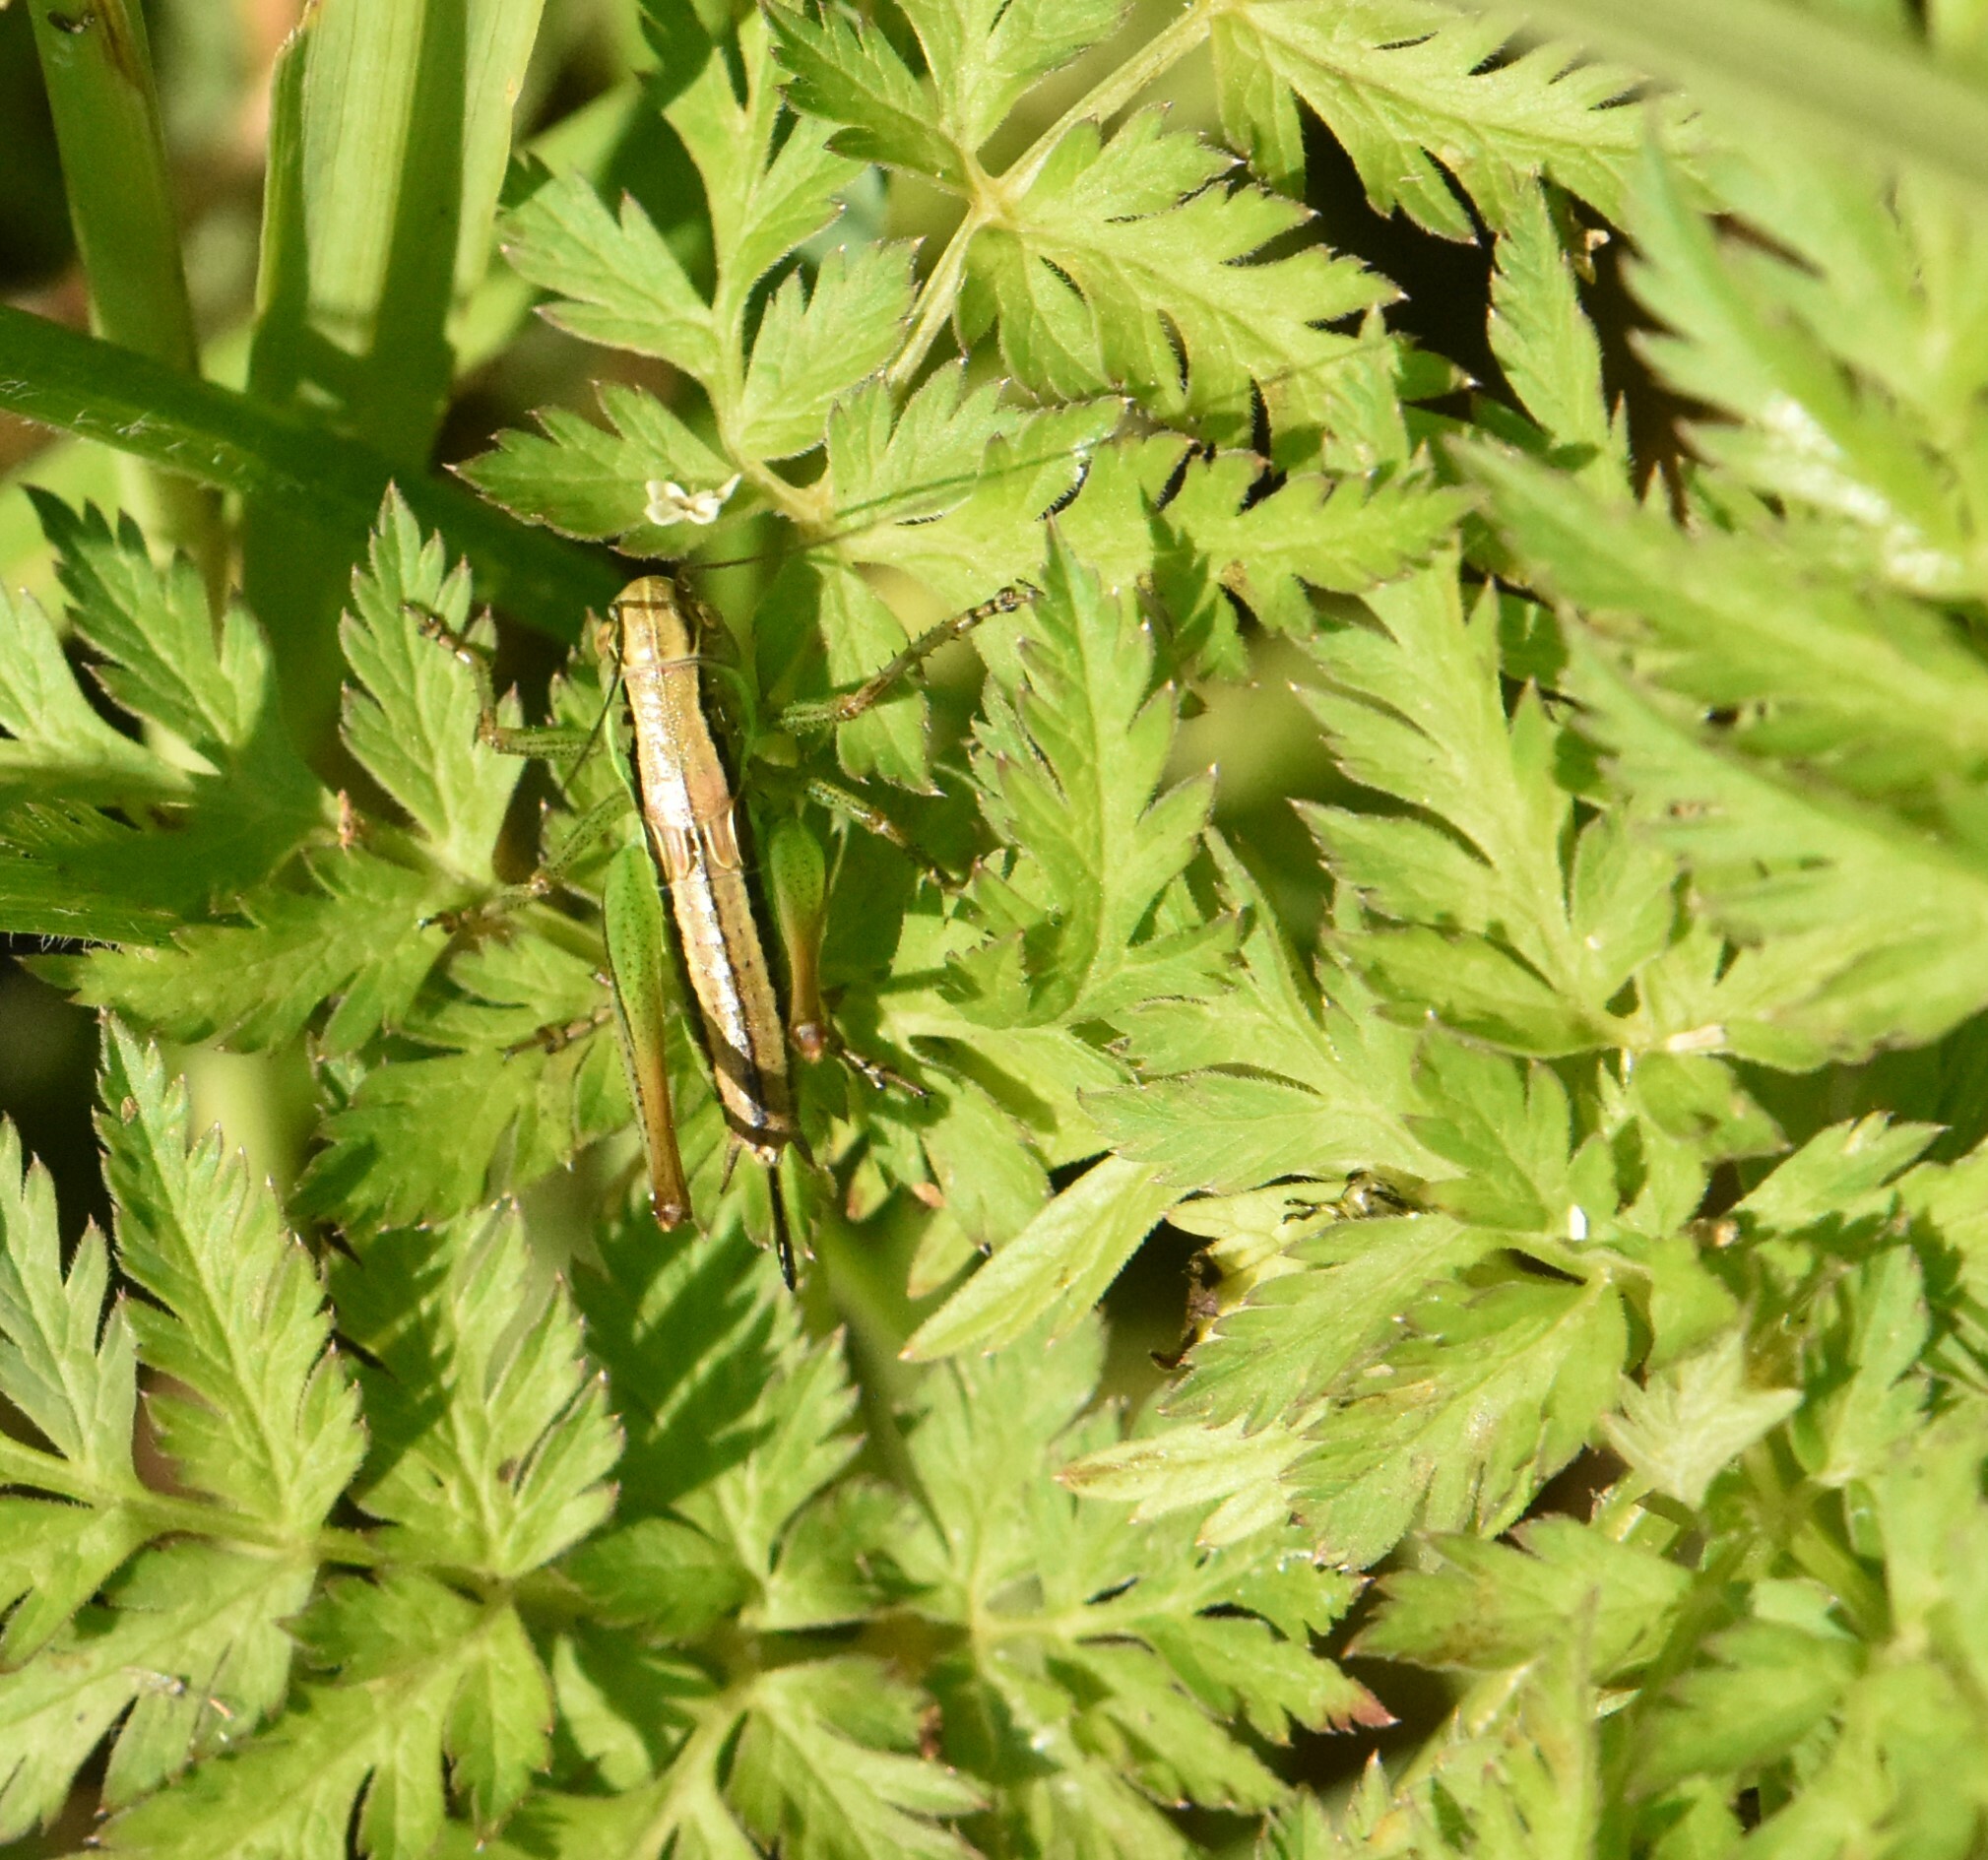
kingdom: Animalia
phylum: Arthropoda
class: Insecta
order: Orthoptera
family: Tettigoniidae
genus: Roeseliana
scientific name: Roeseliana roeselii
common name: Roesel's bush cricket
